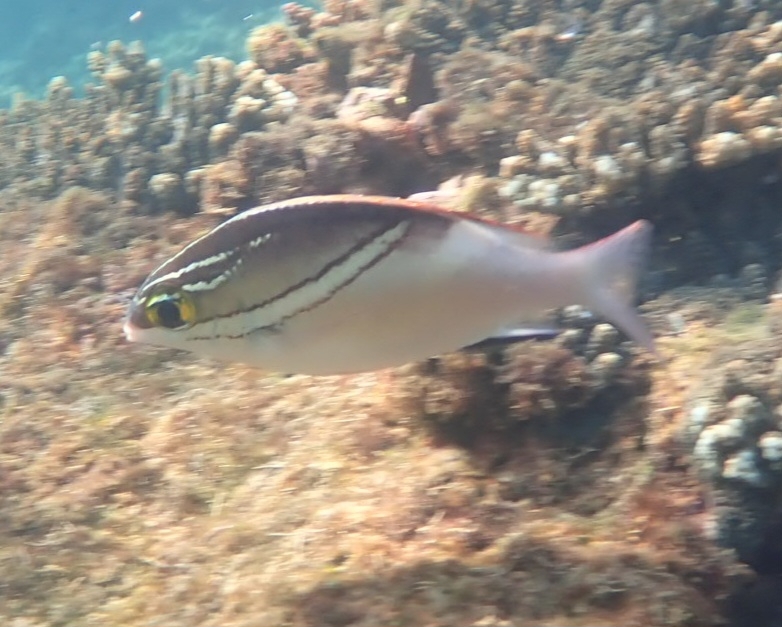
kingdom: Animalia
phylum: Chordata
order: Perciformes
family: Nemipteridae
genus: Scolopsis
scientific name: Scolopsis bilineata
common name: Two-lined monocle bream
